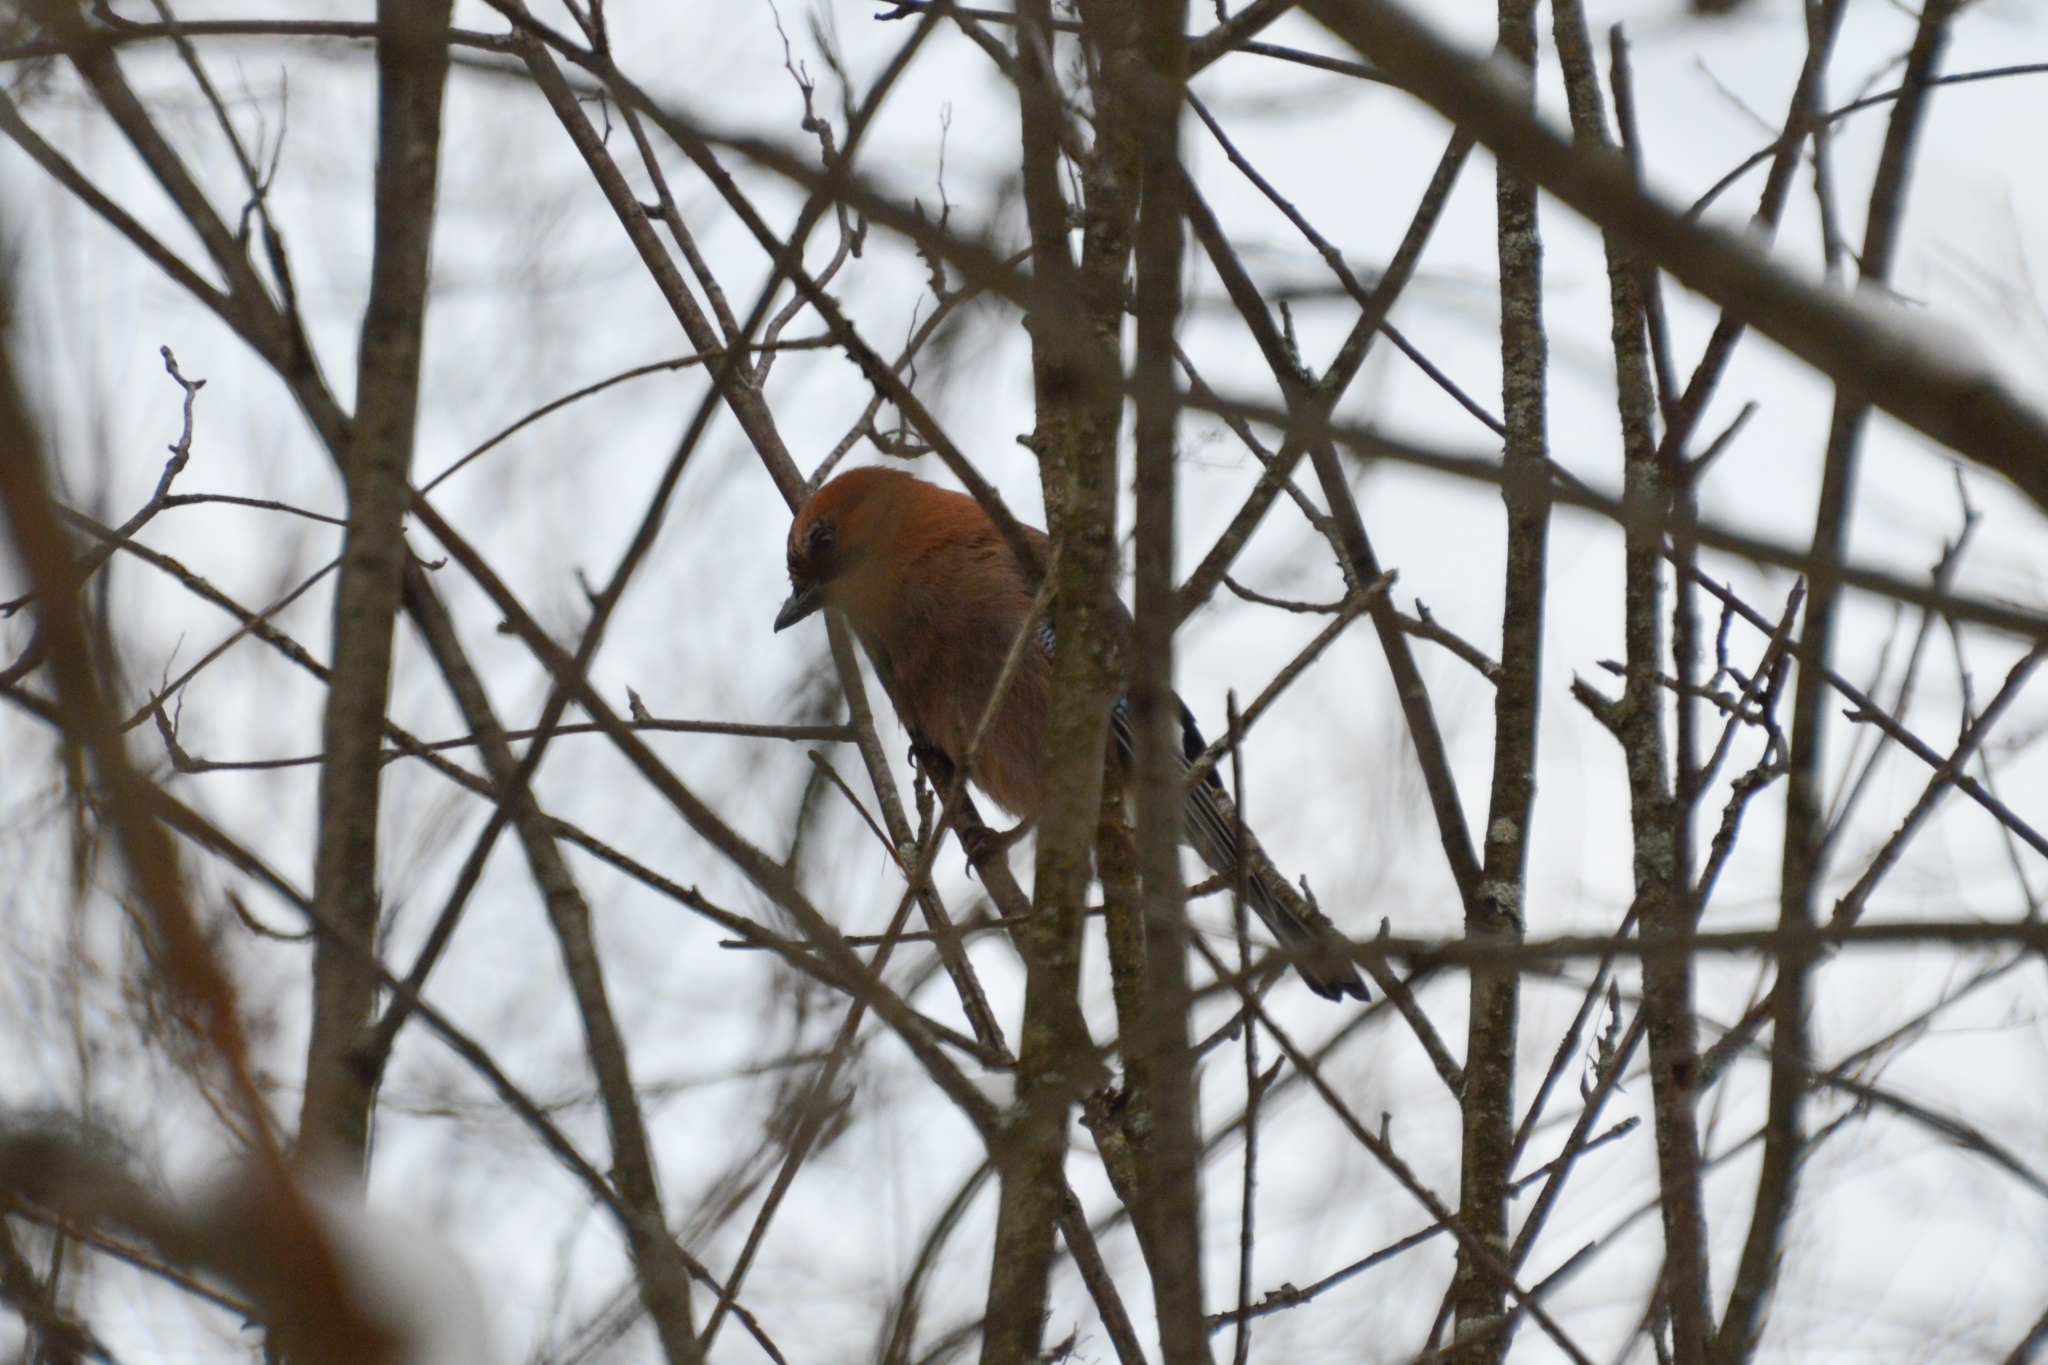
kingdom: Animalia
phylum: Chordata
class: Aves
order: Passeriformes
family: Corvidae
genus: Garrulus
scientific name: Garrulus glandarius
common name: Eurasian jay
